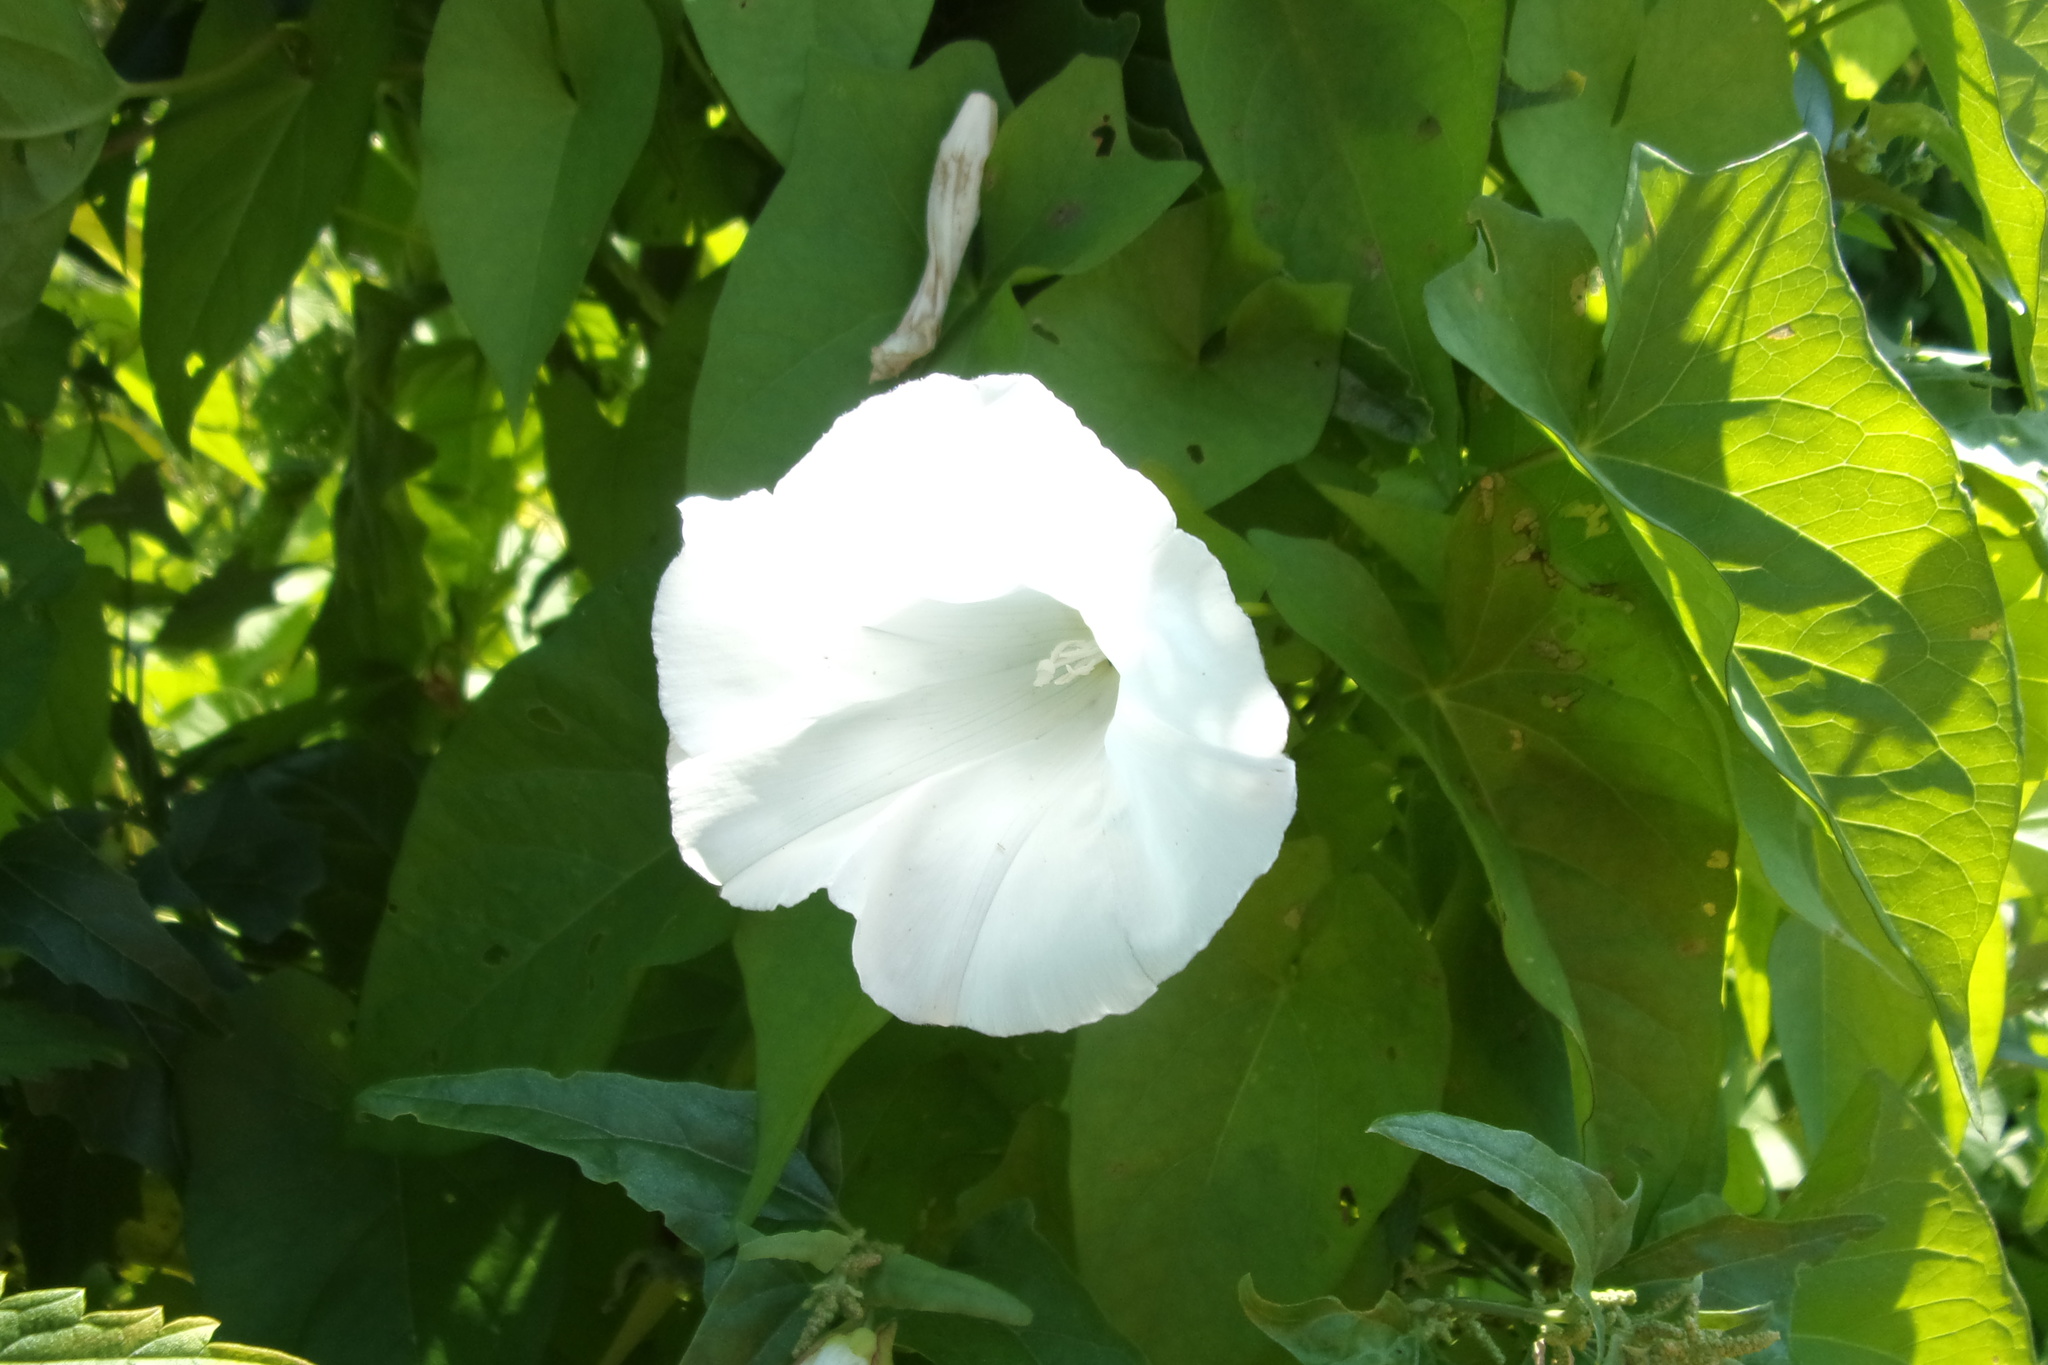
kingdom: Plantae
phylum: Tracheophyta
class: Magnoliopsida
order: Solanales
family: Convolvulaceae
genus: Calystegia
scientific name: Calystegia sepium
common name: Hedge bindweed
